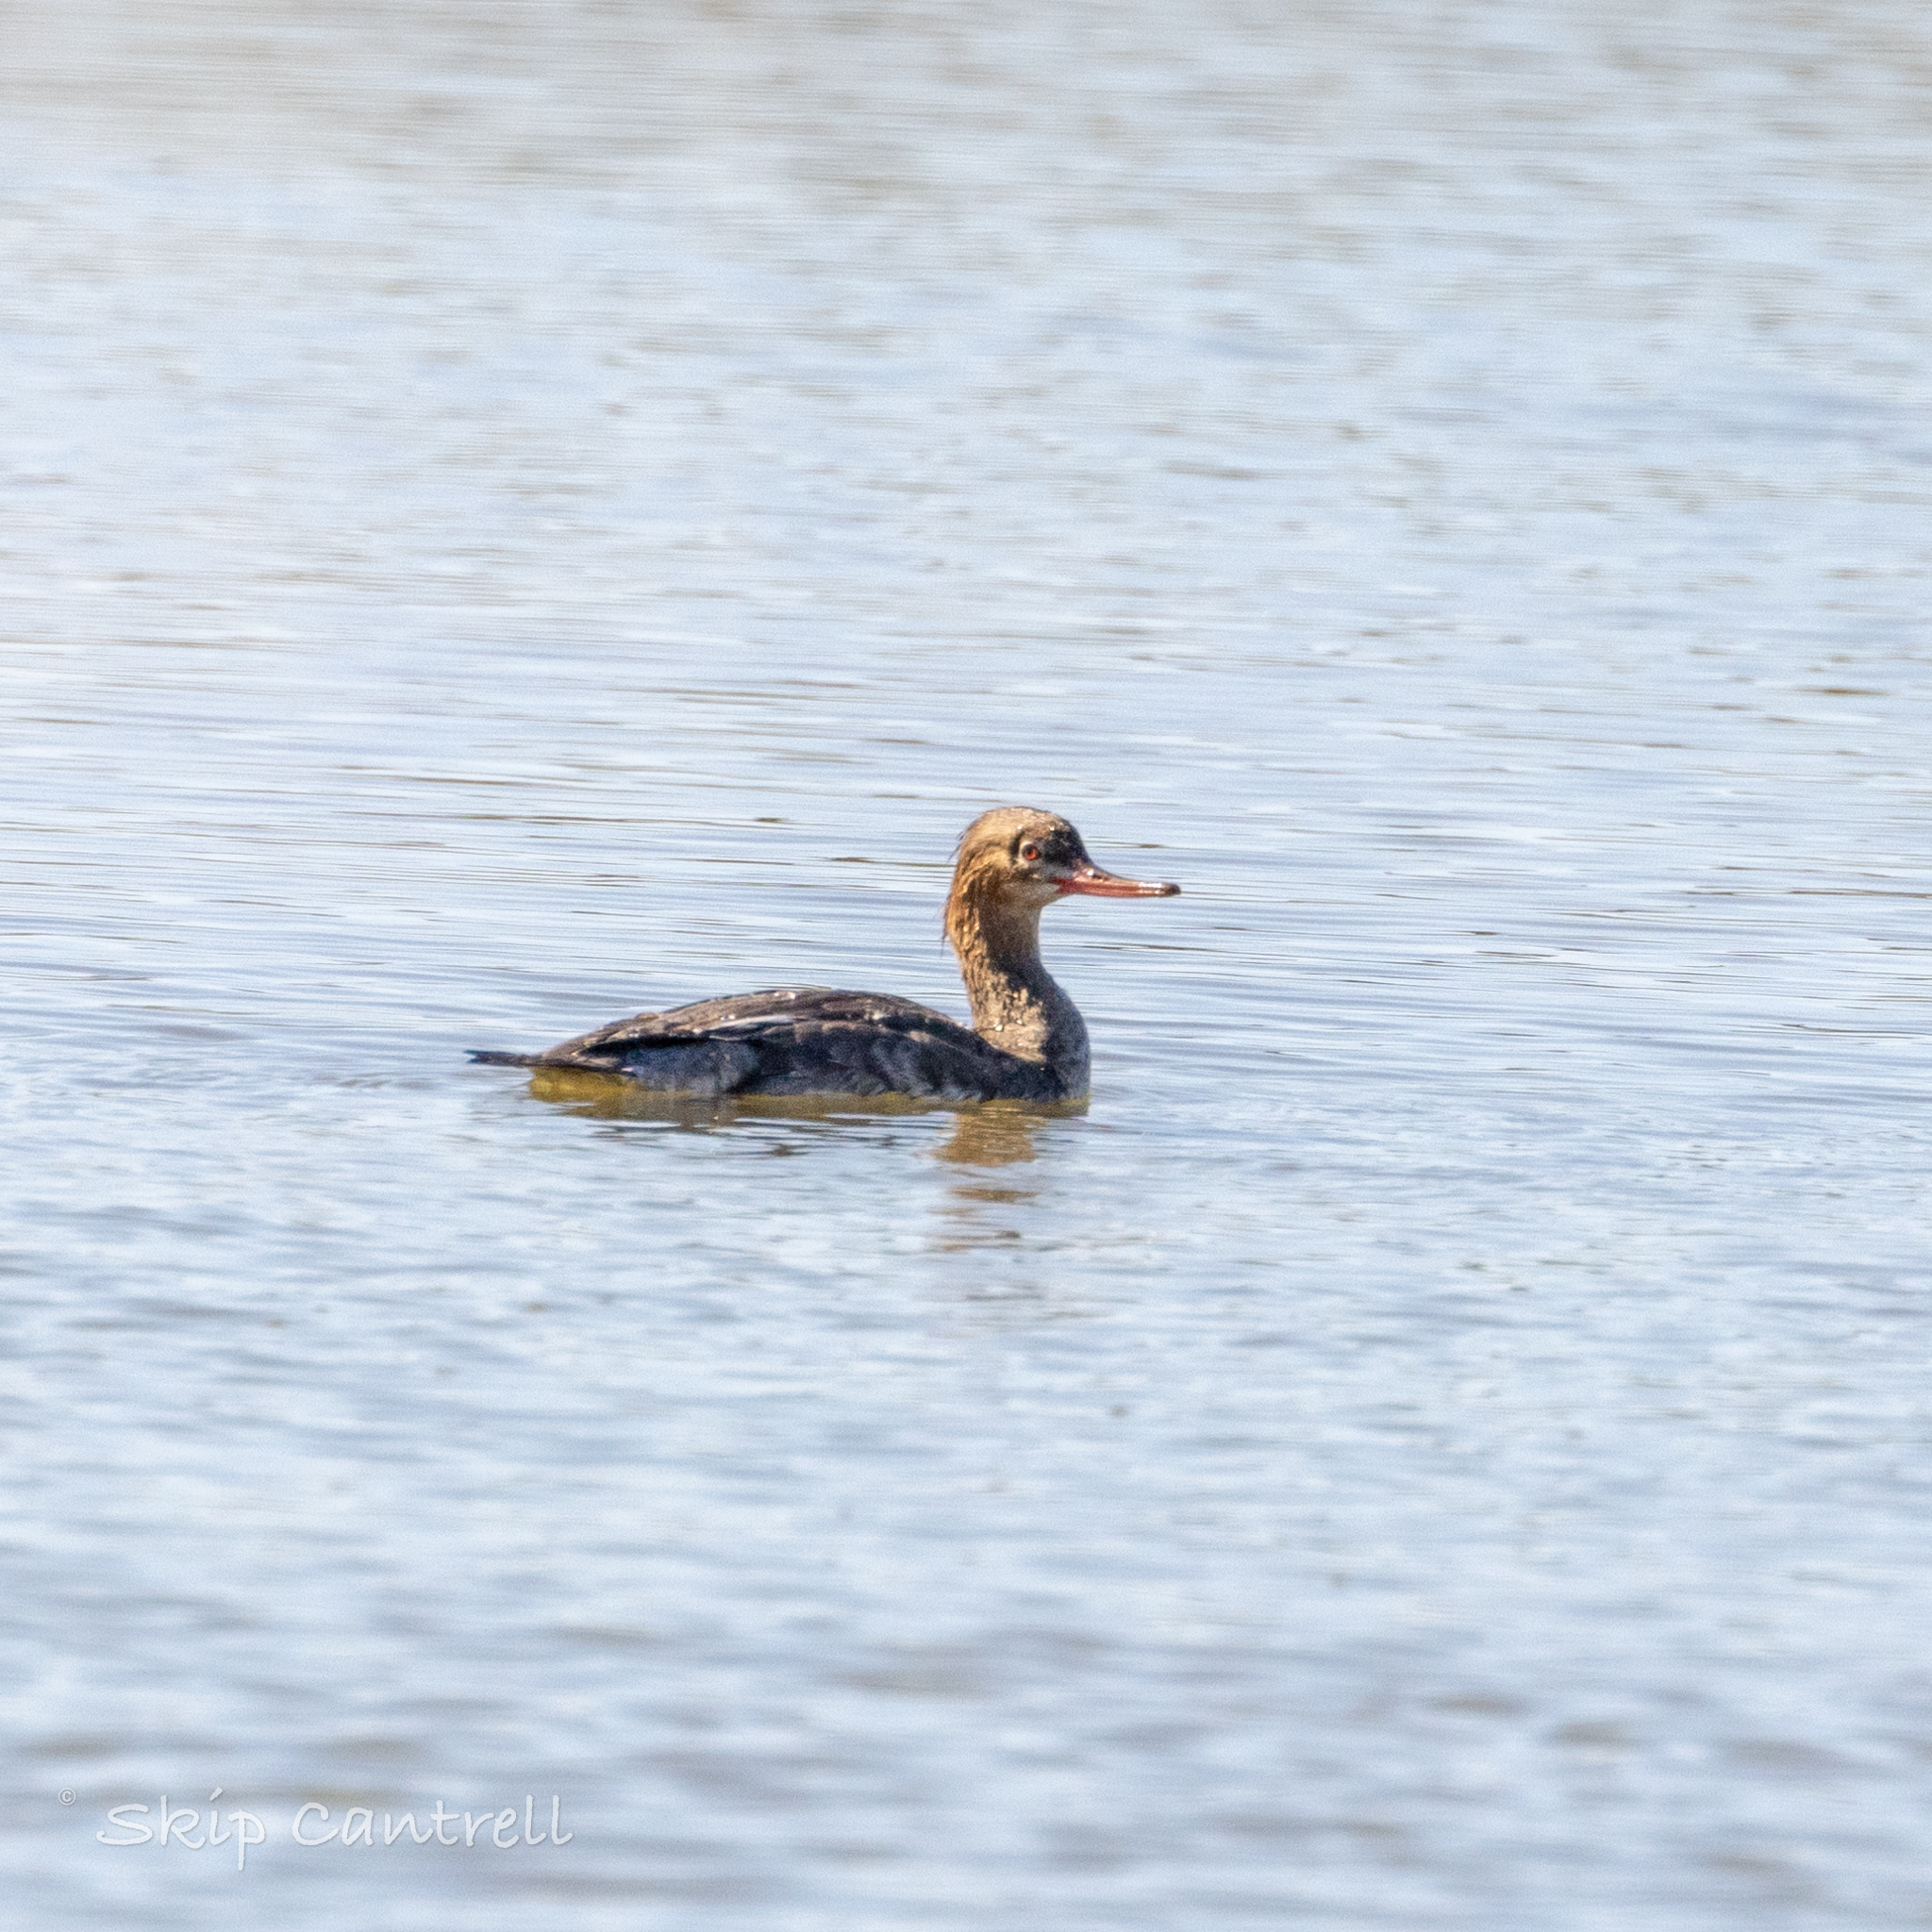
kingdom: Animalia
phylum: Chordata
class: Aves
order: Anseriformes
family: Anatidae
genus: Mergus
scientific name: Mergus serrator
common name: Red-breasted merganser
